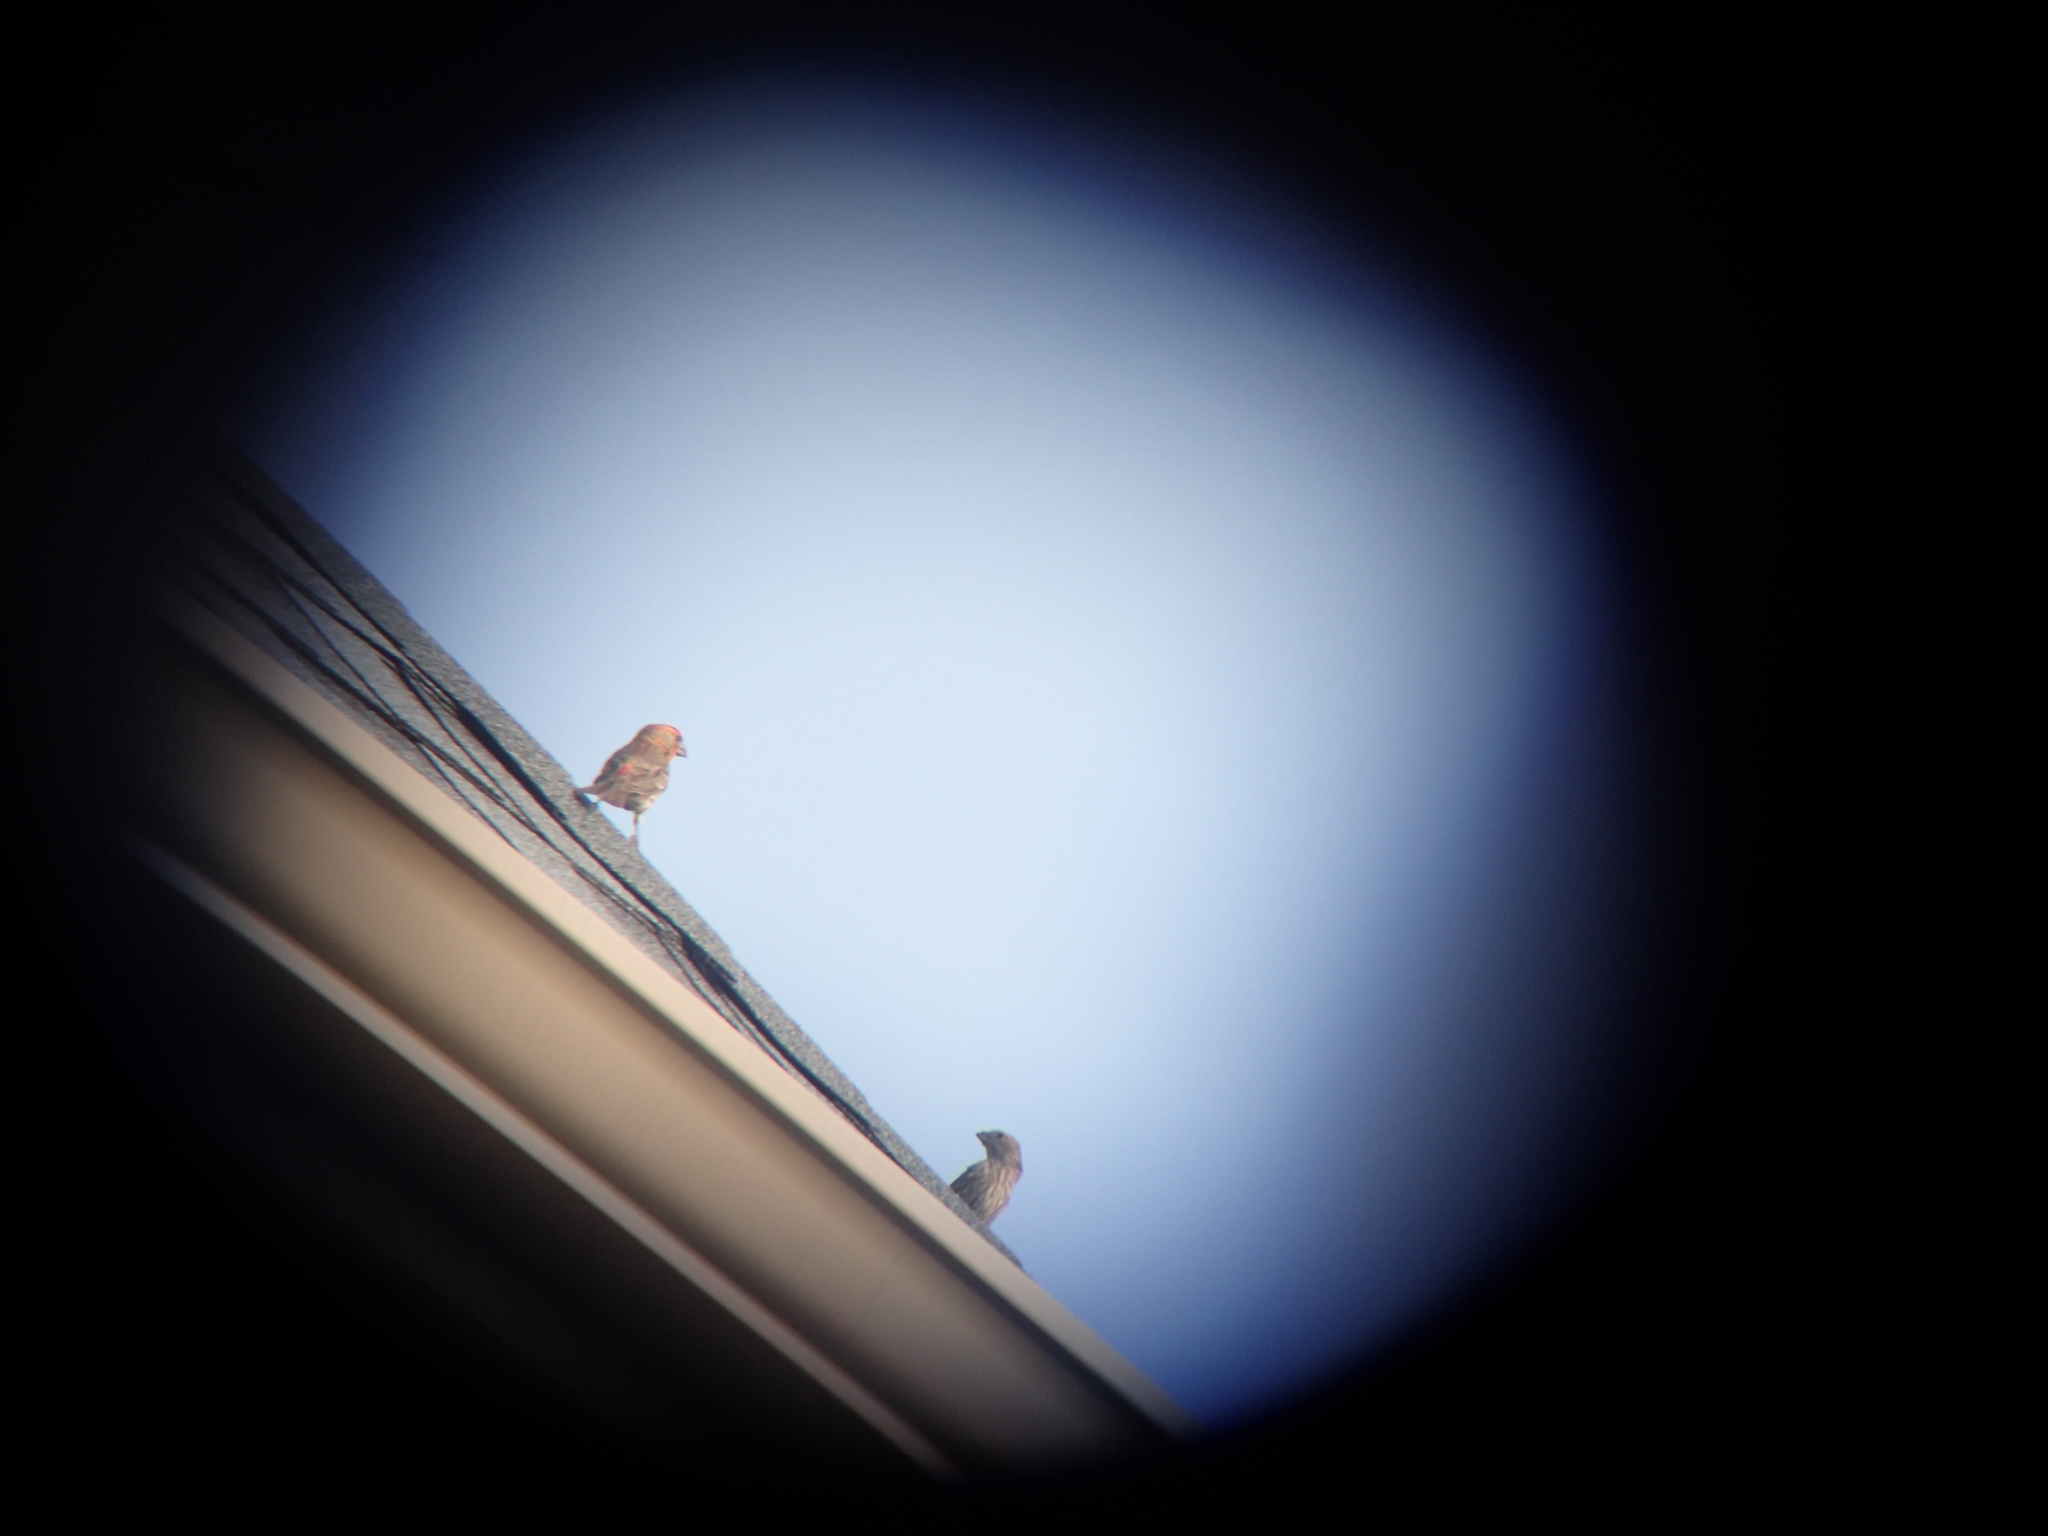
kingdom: Animalia
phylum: Chordata
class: Aves
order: Passeriformes
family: Fringillidae
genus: Haemorhous
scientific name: Haemorhous mexicanus
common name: House finch
